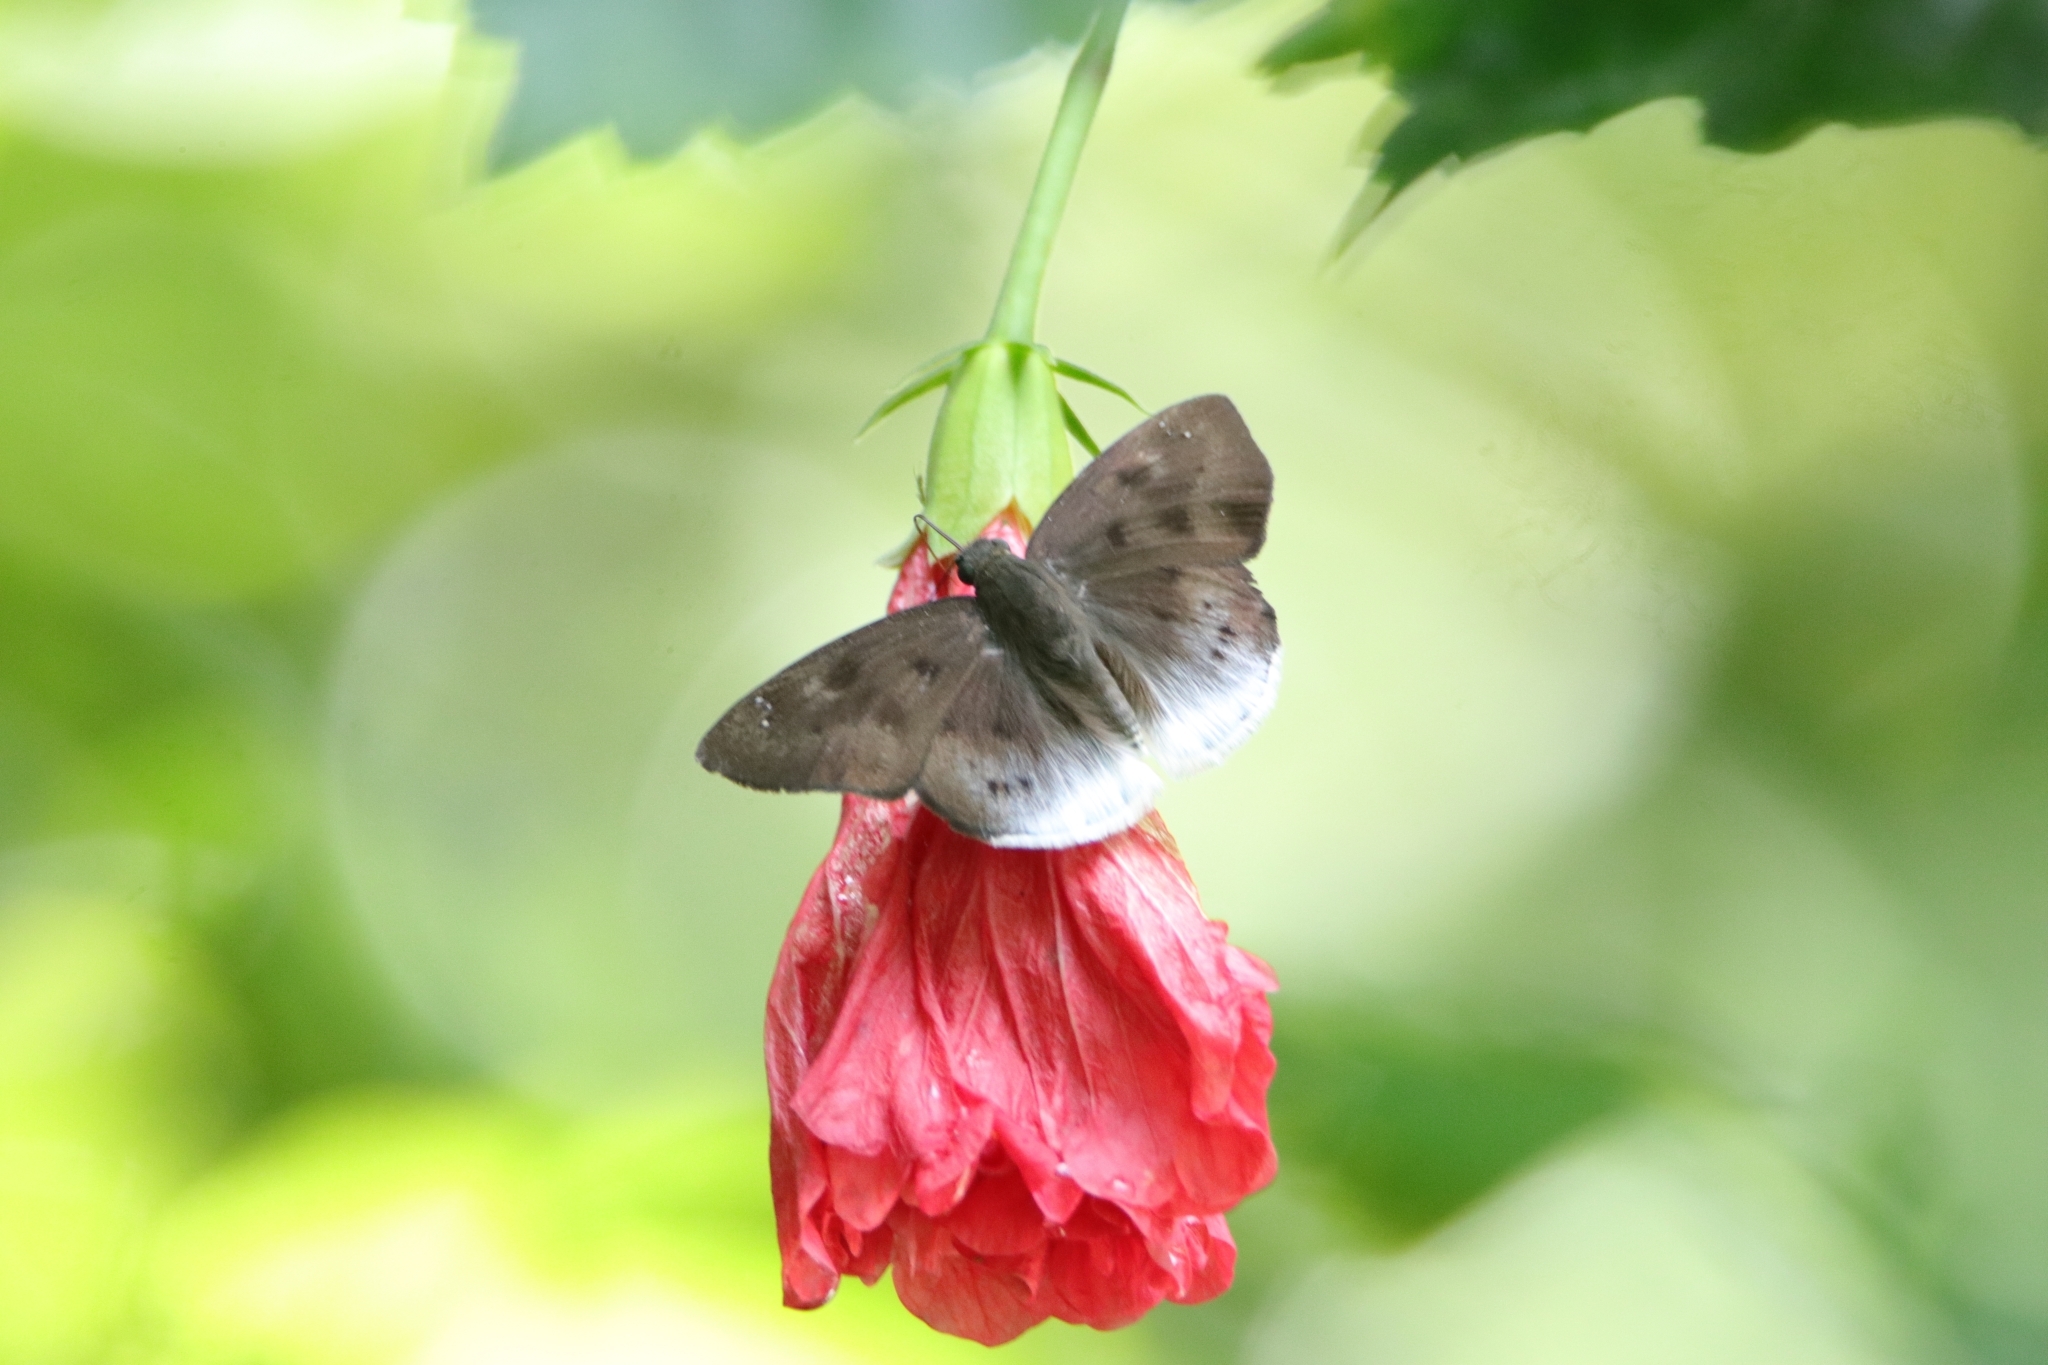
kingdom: Animalia
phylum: Arthropoda
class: Insecta
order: Lepidoptera
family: Hesperiidae
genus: Tagiades
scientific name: Tagiades gana
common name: Suffused snow flat
